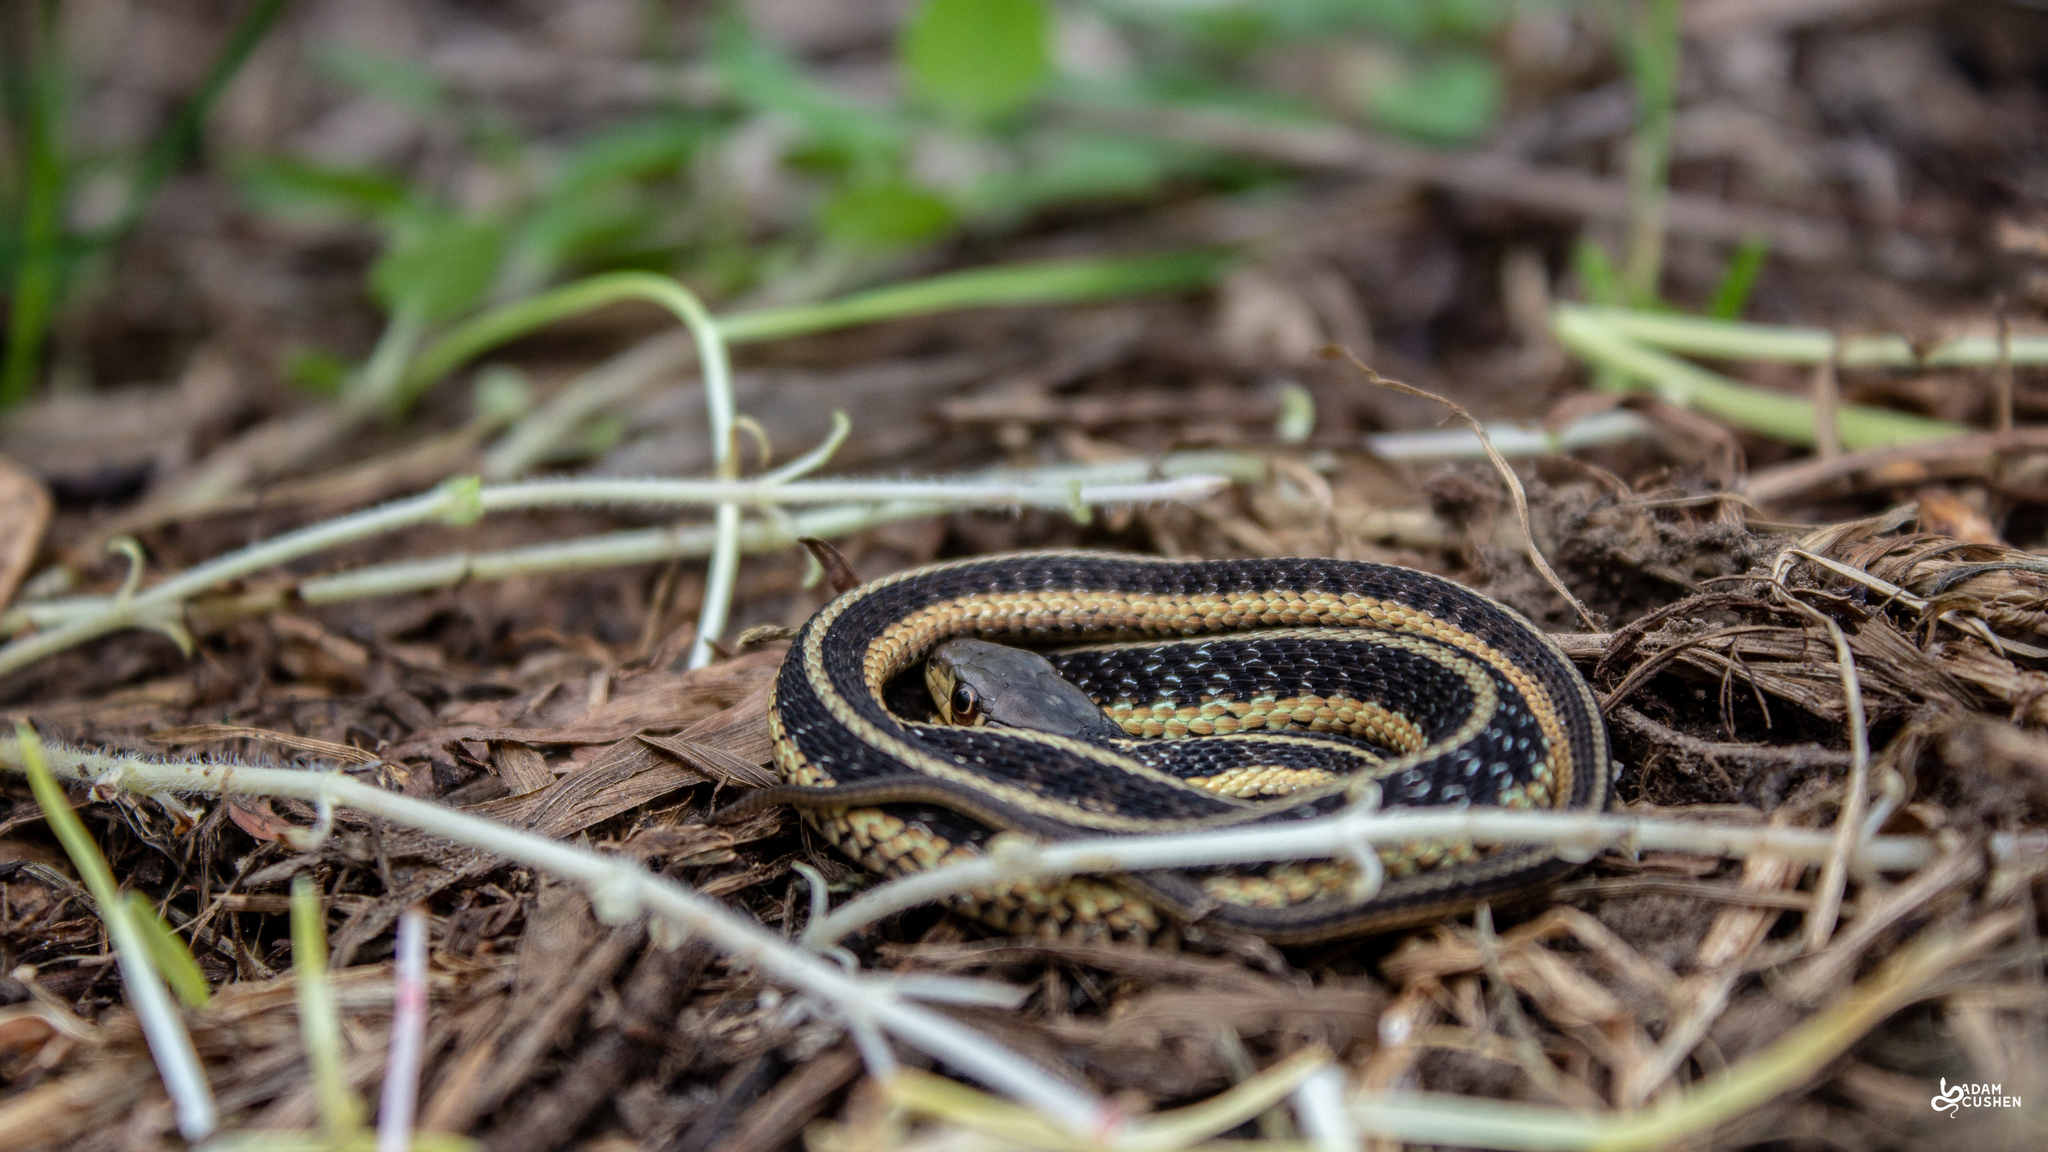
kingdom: Animalia
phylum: Chordata
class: Squamata
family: Colubridae
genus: Thamnophis
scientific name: Thamnophis sirtalis
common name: Common garter snake
